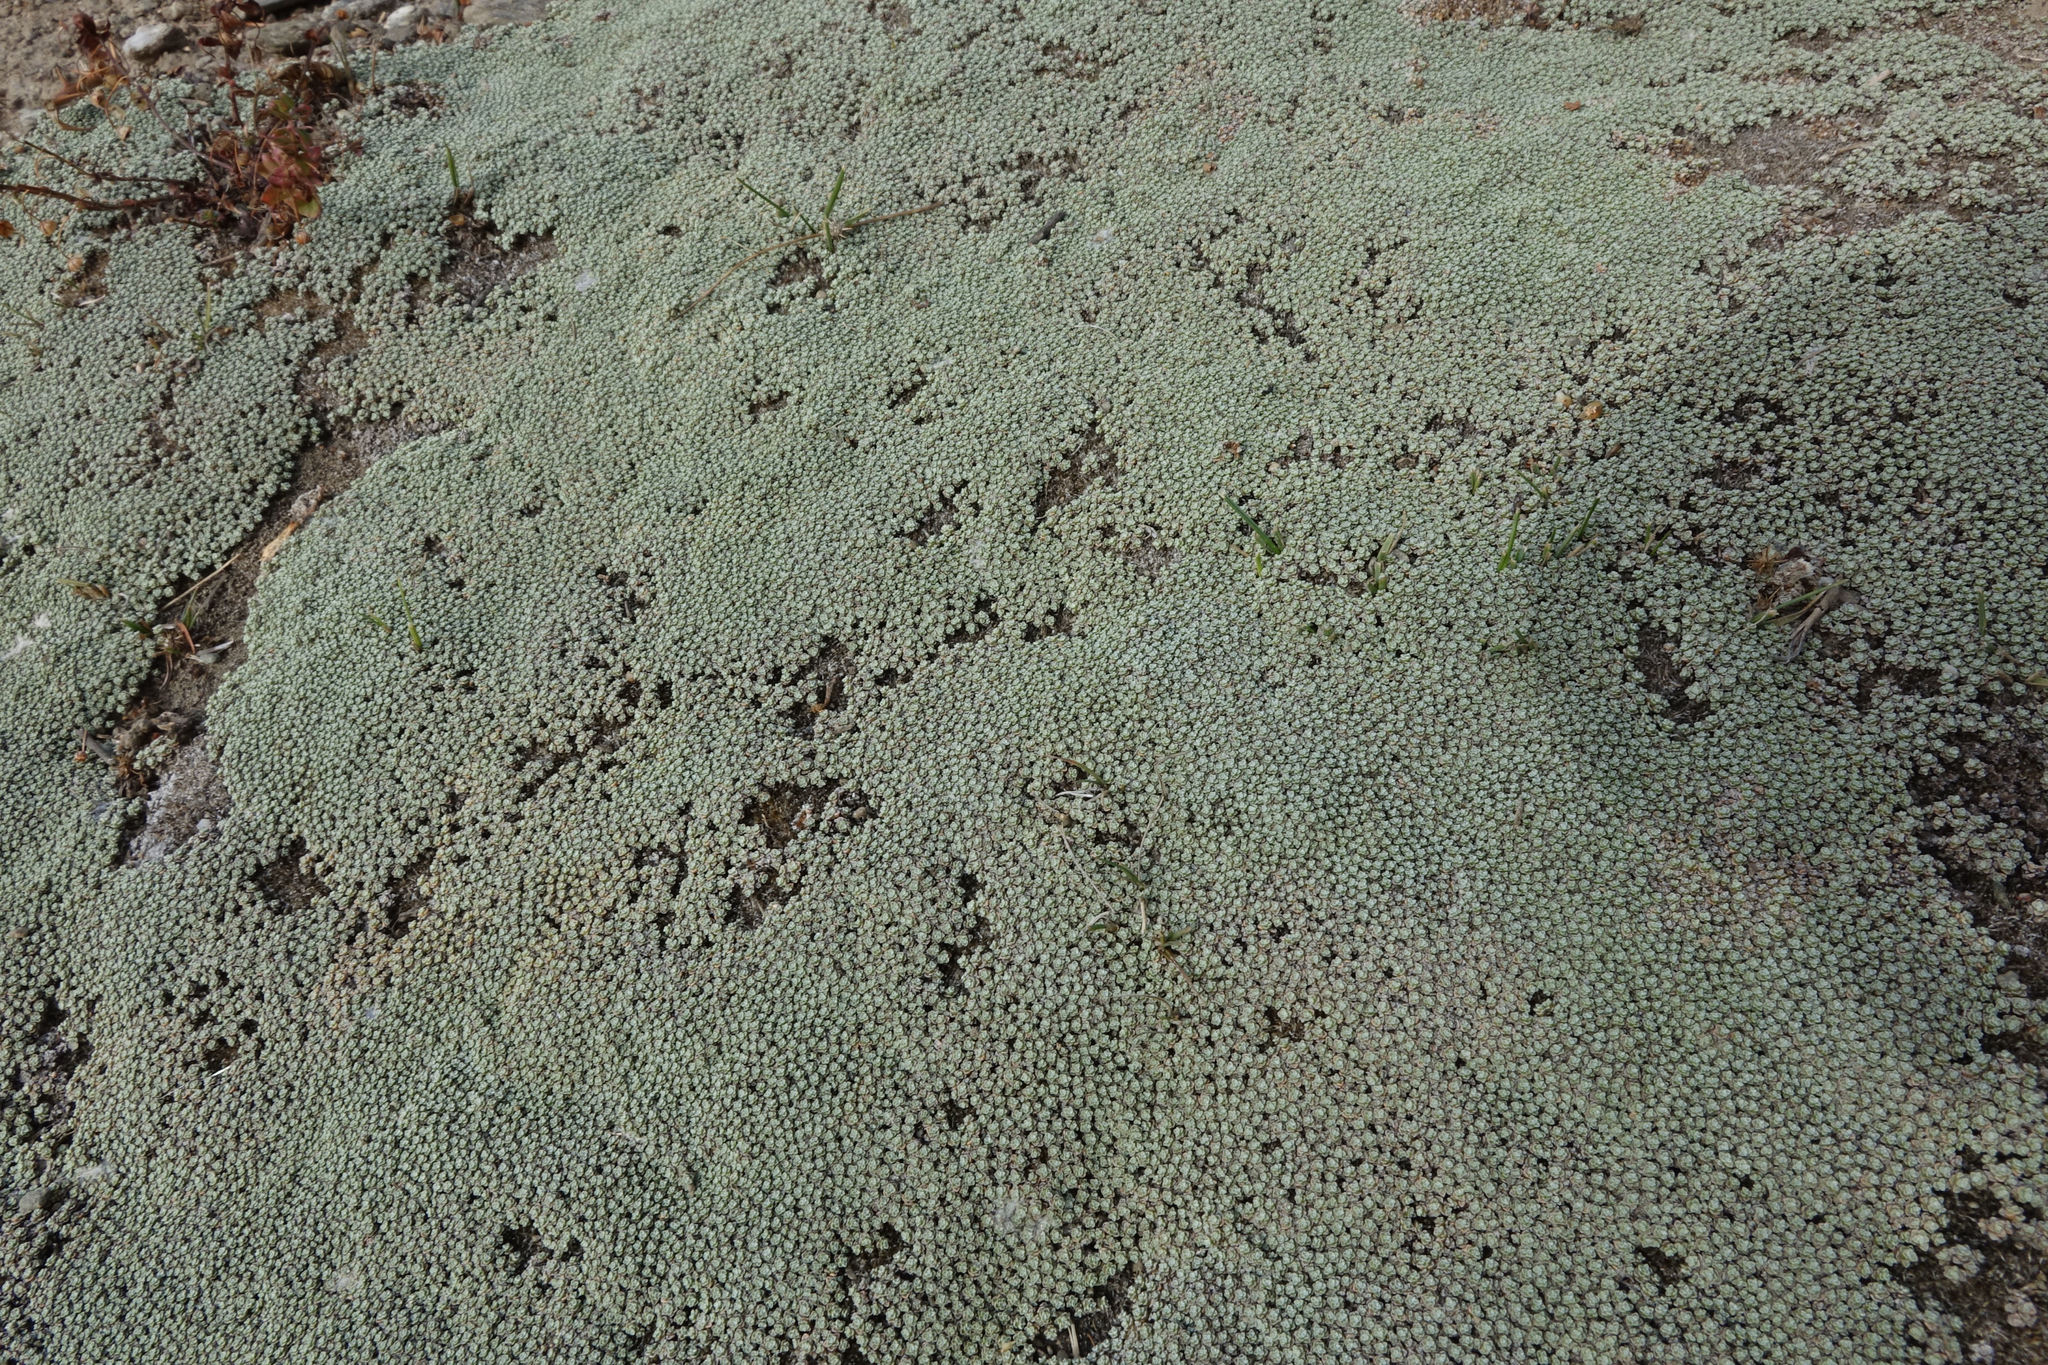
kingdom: Plantae
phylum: Tracheophyta
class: Magnoliopsida
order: Asterales
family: Asteraceae
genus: Raoulia
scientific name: Raoulia australis
